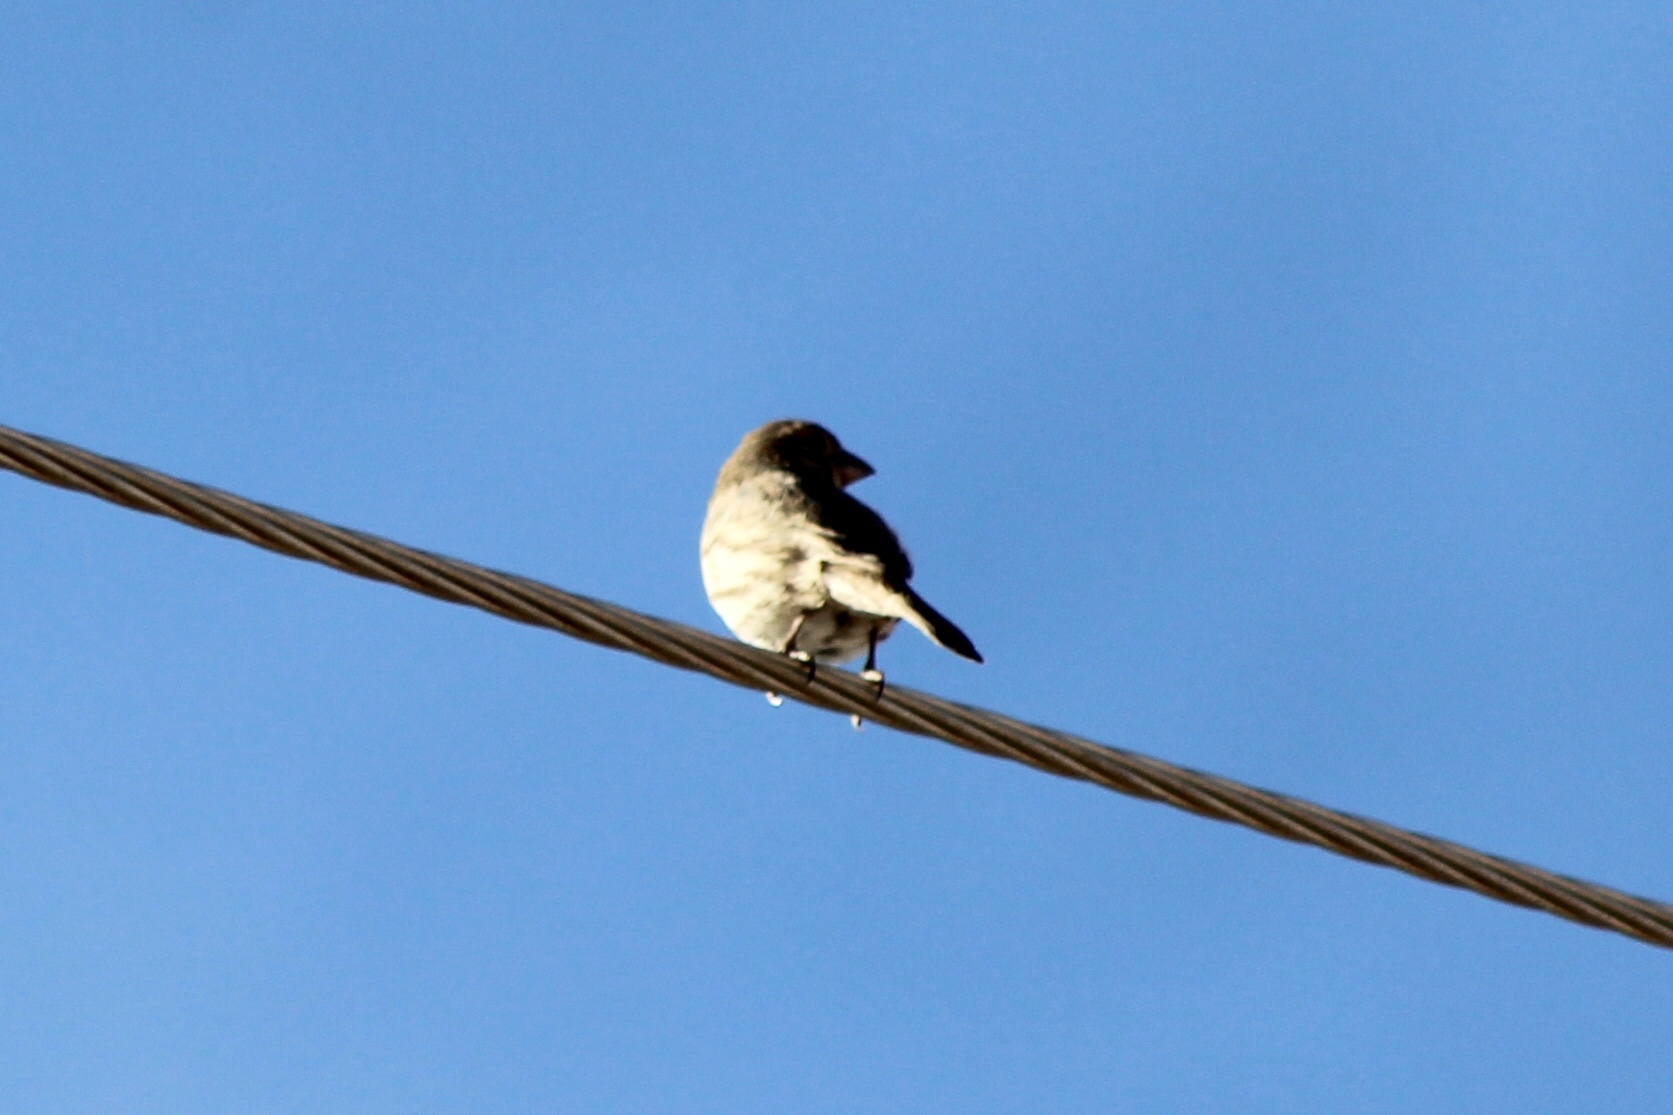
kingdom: Animalia
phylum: Chordata
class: Aves
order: Passeriformes
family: Fringillidae
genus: Haemorhous
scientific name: Haemorhous mexicanus
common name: House finch
